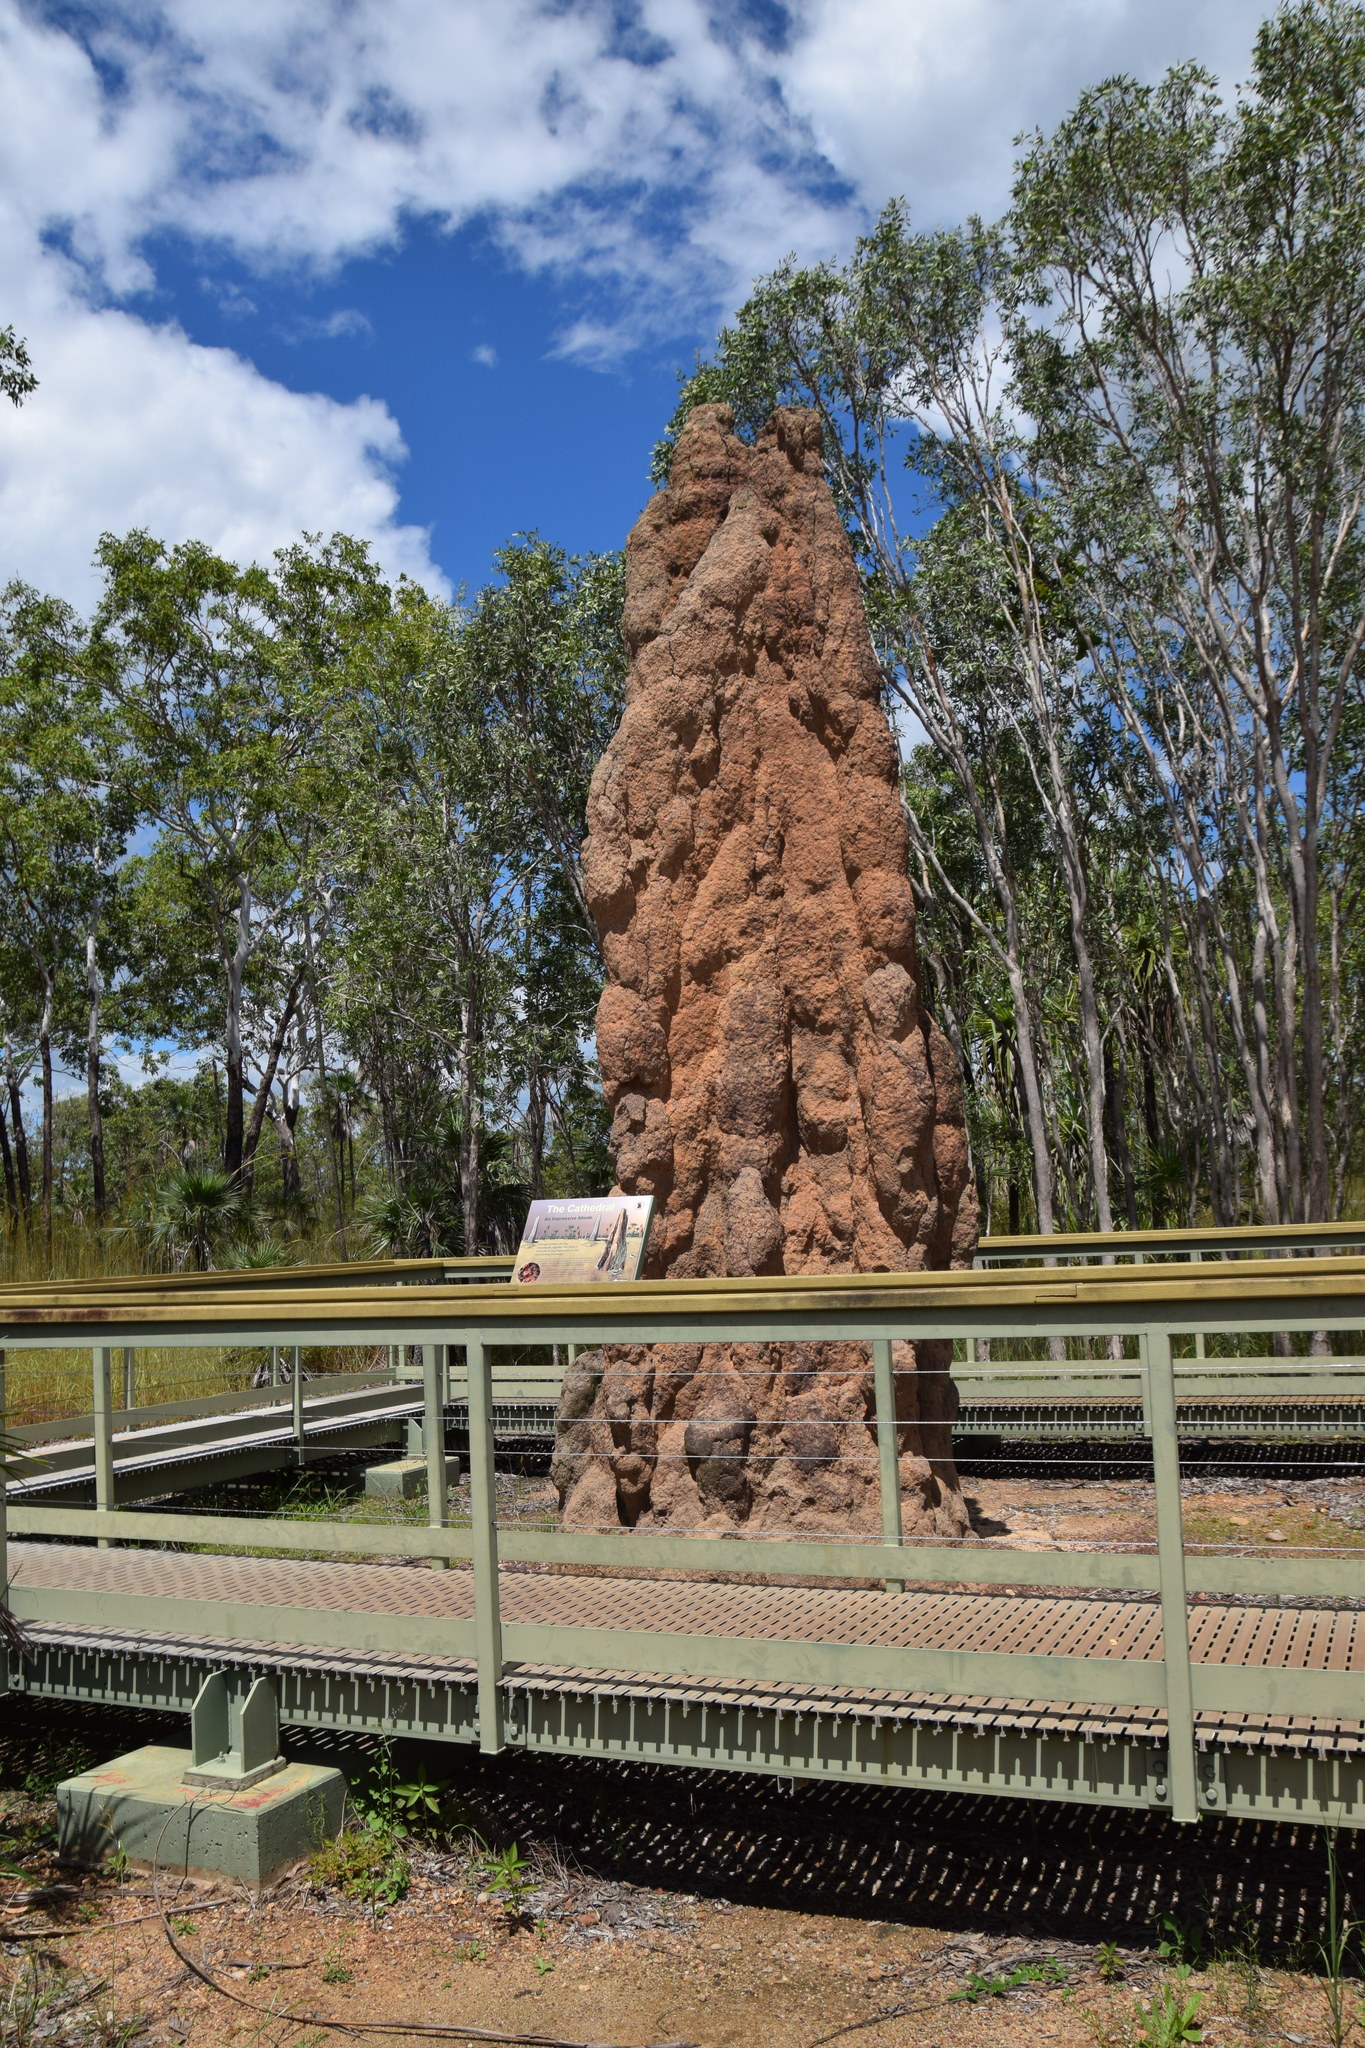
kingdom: Animalia
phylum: Arthropoda
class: Insecta
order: Blattodea
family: Termitidae
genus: Nasutitermes
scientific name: Nasutitermes triodiae
